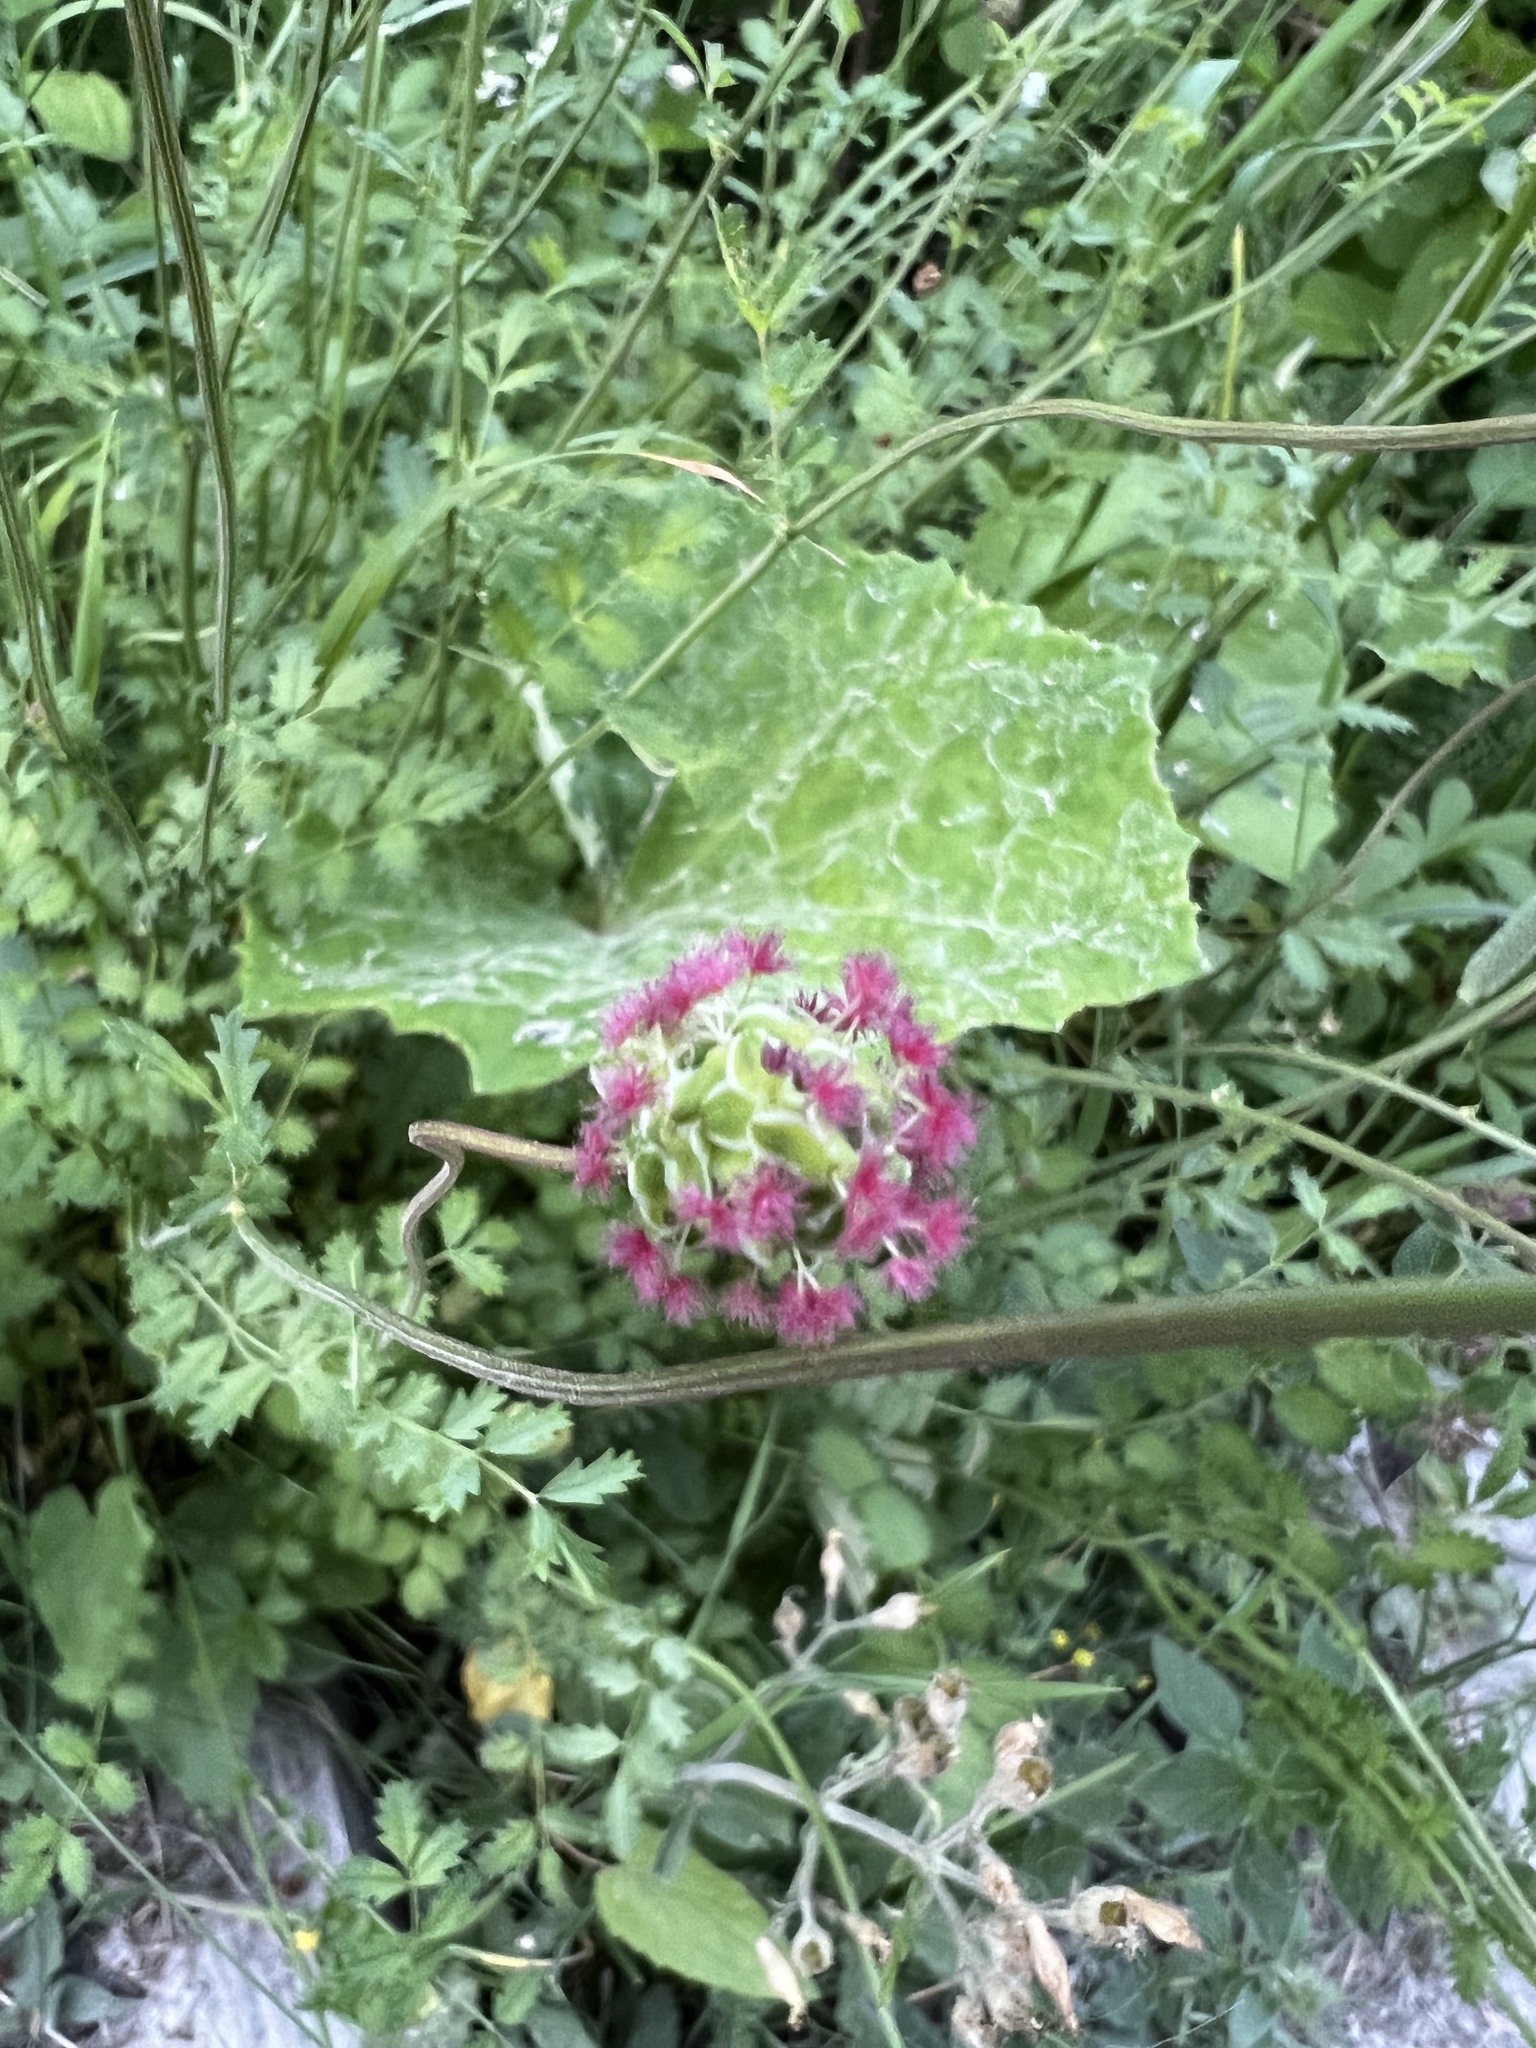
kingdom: Plantae
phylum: Tracheophyta
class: Magnoliopsida
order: Rosales
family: Rosaceae
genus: Poterium
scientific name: Poterium sanguisorba
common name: Salad burnet
